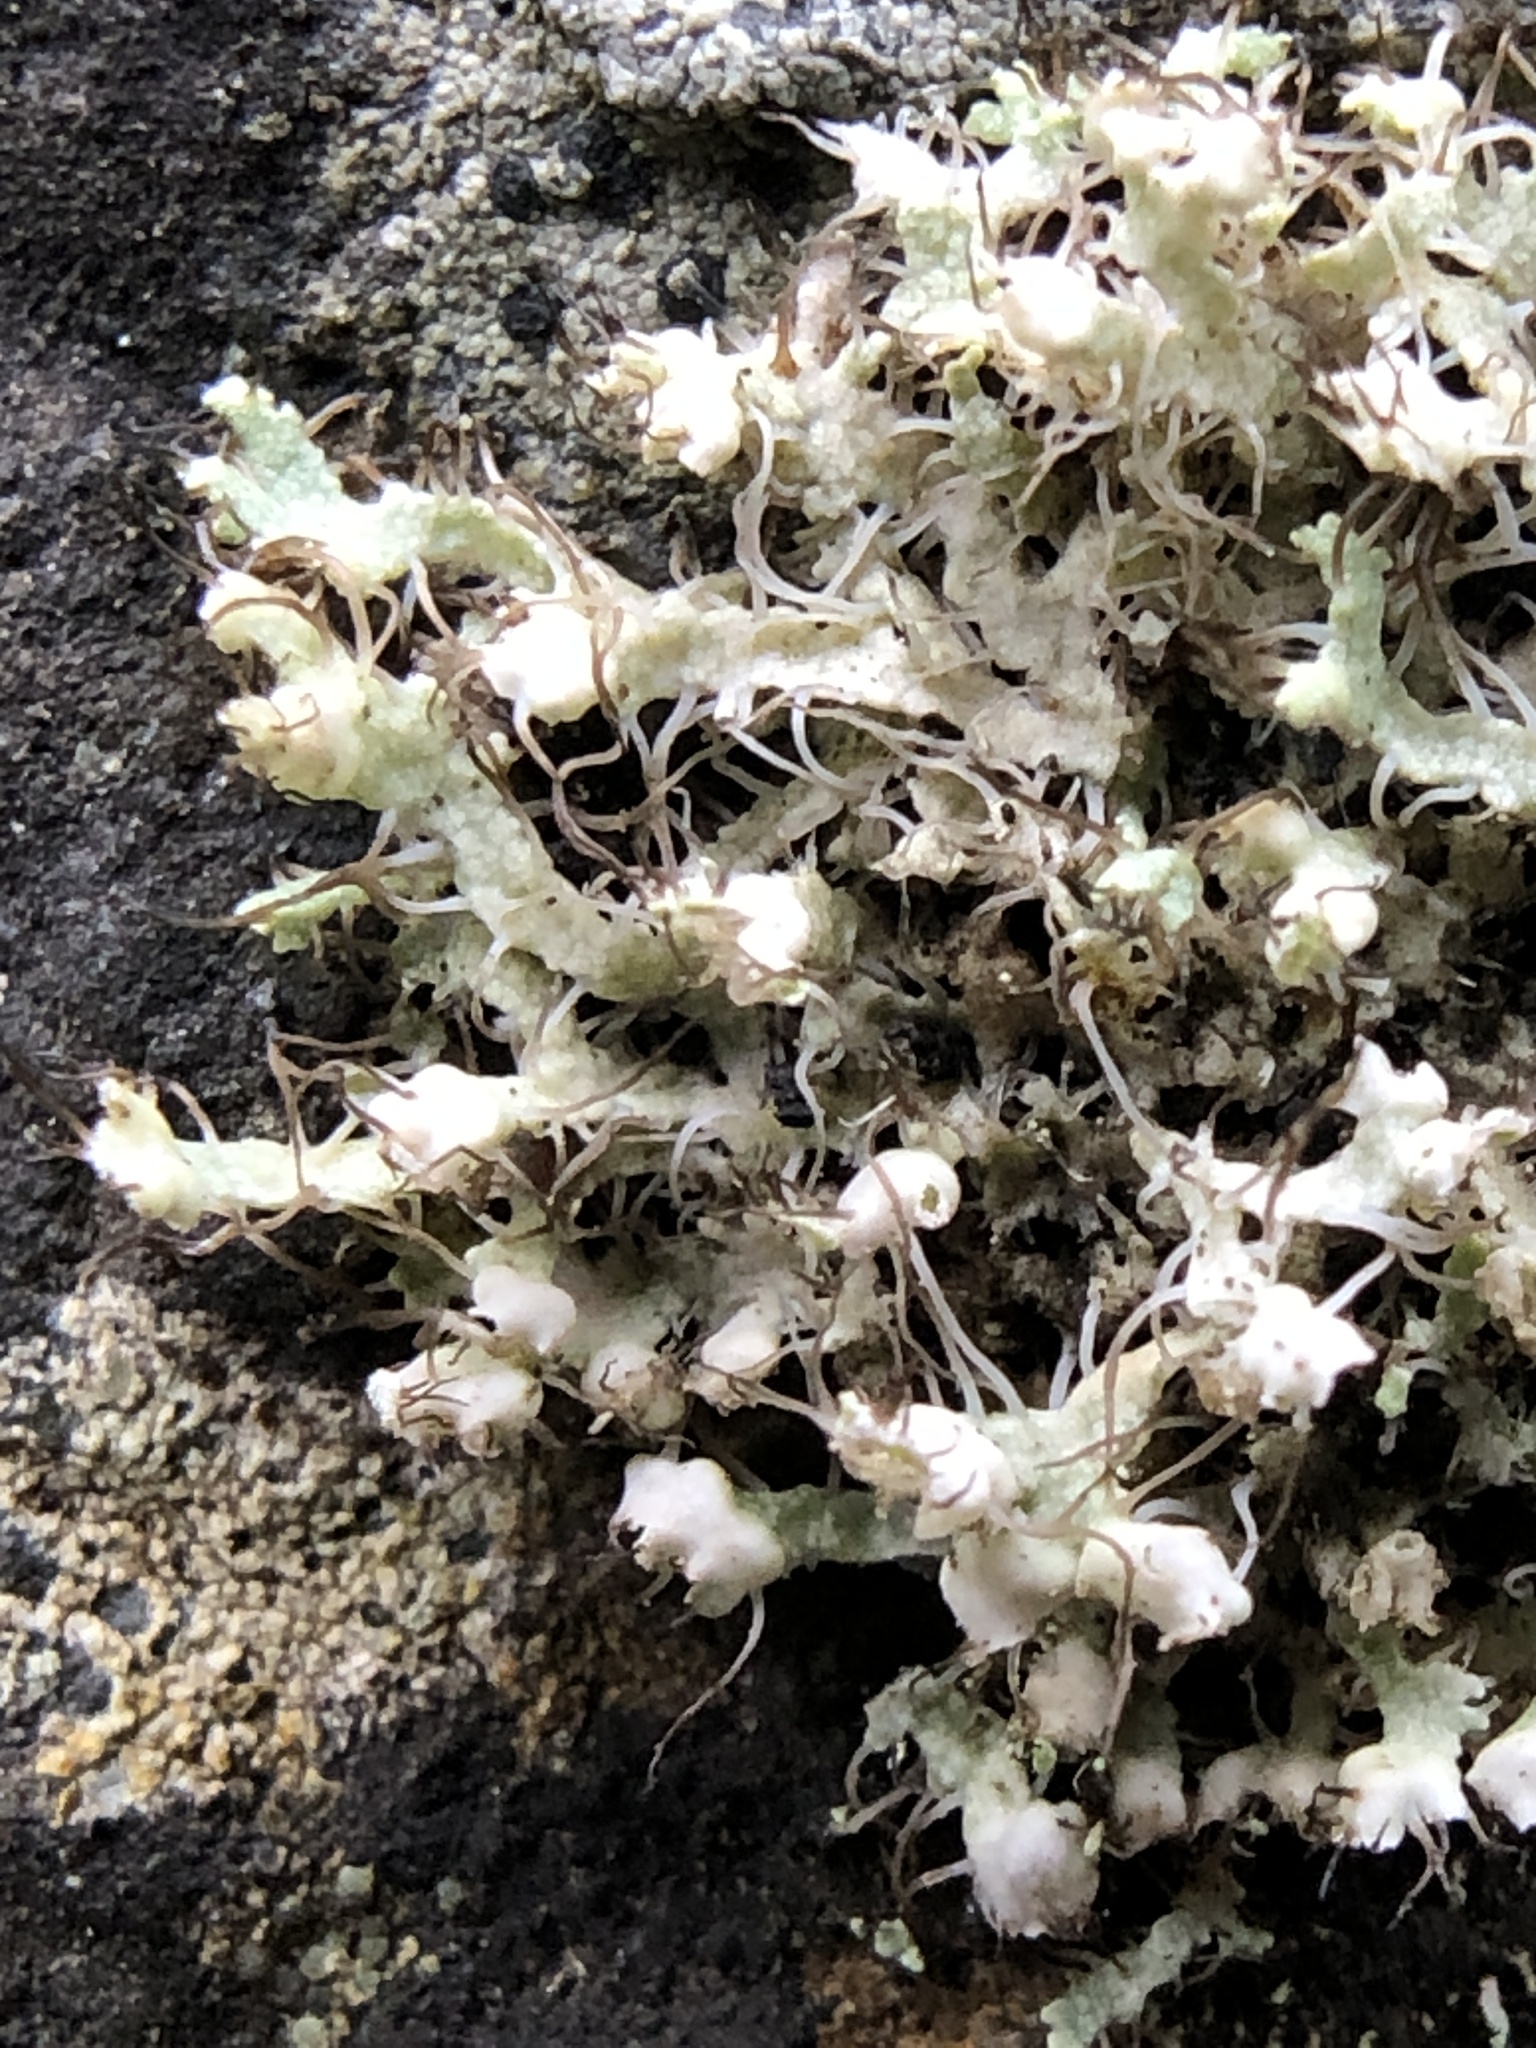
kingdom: Fungi
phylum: Ascomycota
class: Lecanoromycetes
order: Caliciales
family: Physciaceae
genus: Physcia
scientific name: Physcia adscendens
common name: Hooded rosette lichen
